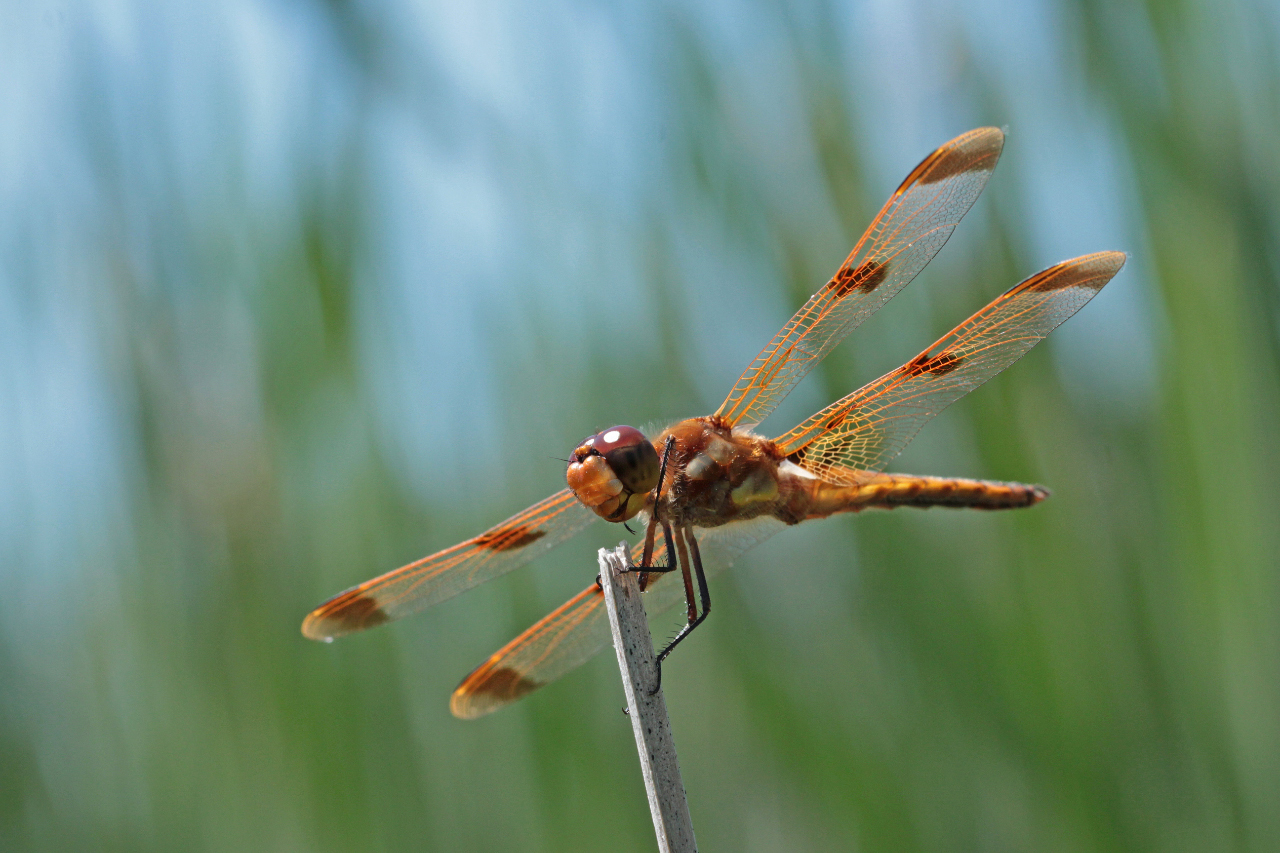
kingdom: Animalia
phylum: Arthropoda
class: Insecta
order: Odonata
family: Libellulidae
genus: Libellula
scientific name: Libellula semifasciata
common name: Painted skimmer
